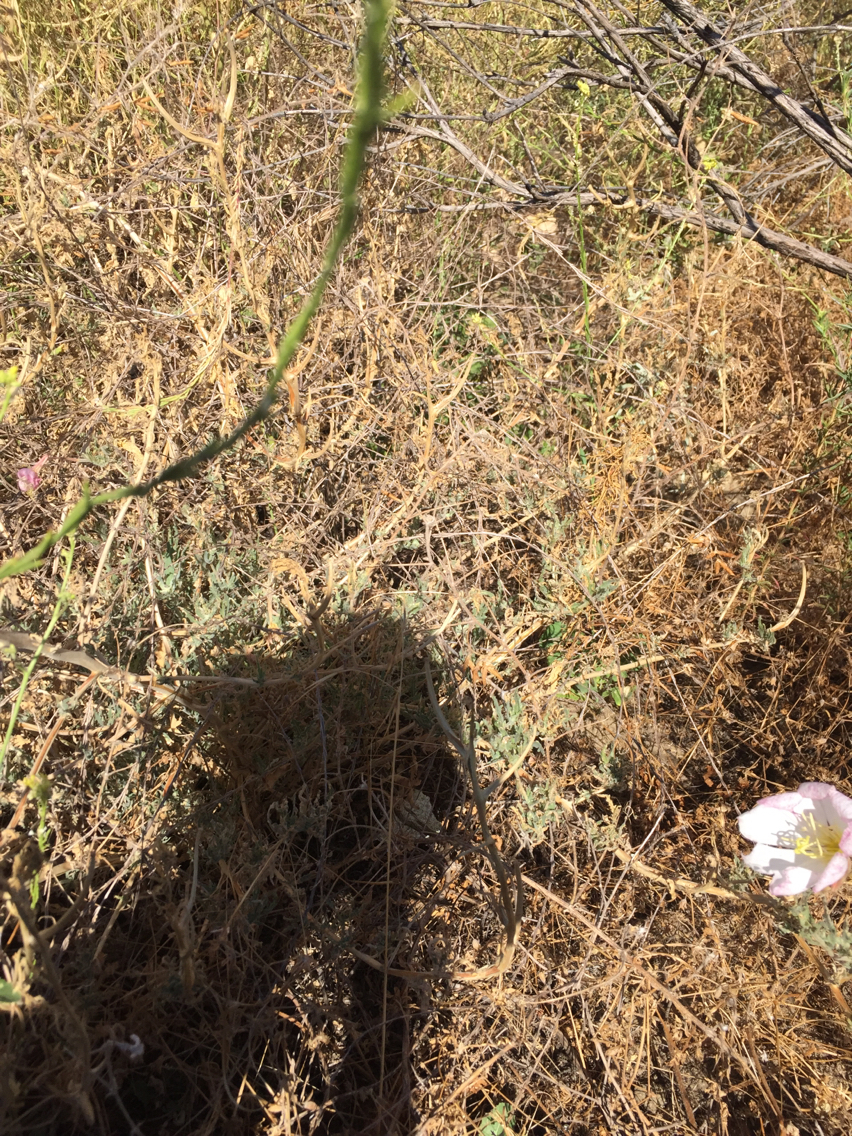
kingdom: Plantae
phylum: Tracheophyta
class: Magnoliopsida
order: Myrtales
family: Onagraceae
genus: Oenothera
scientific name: Oenothera deltoides
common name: Basket evening-primrose
